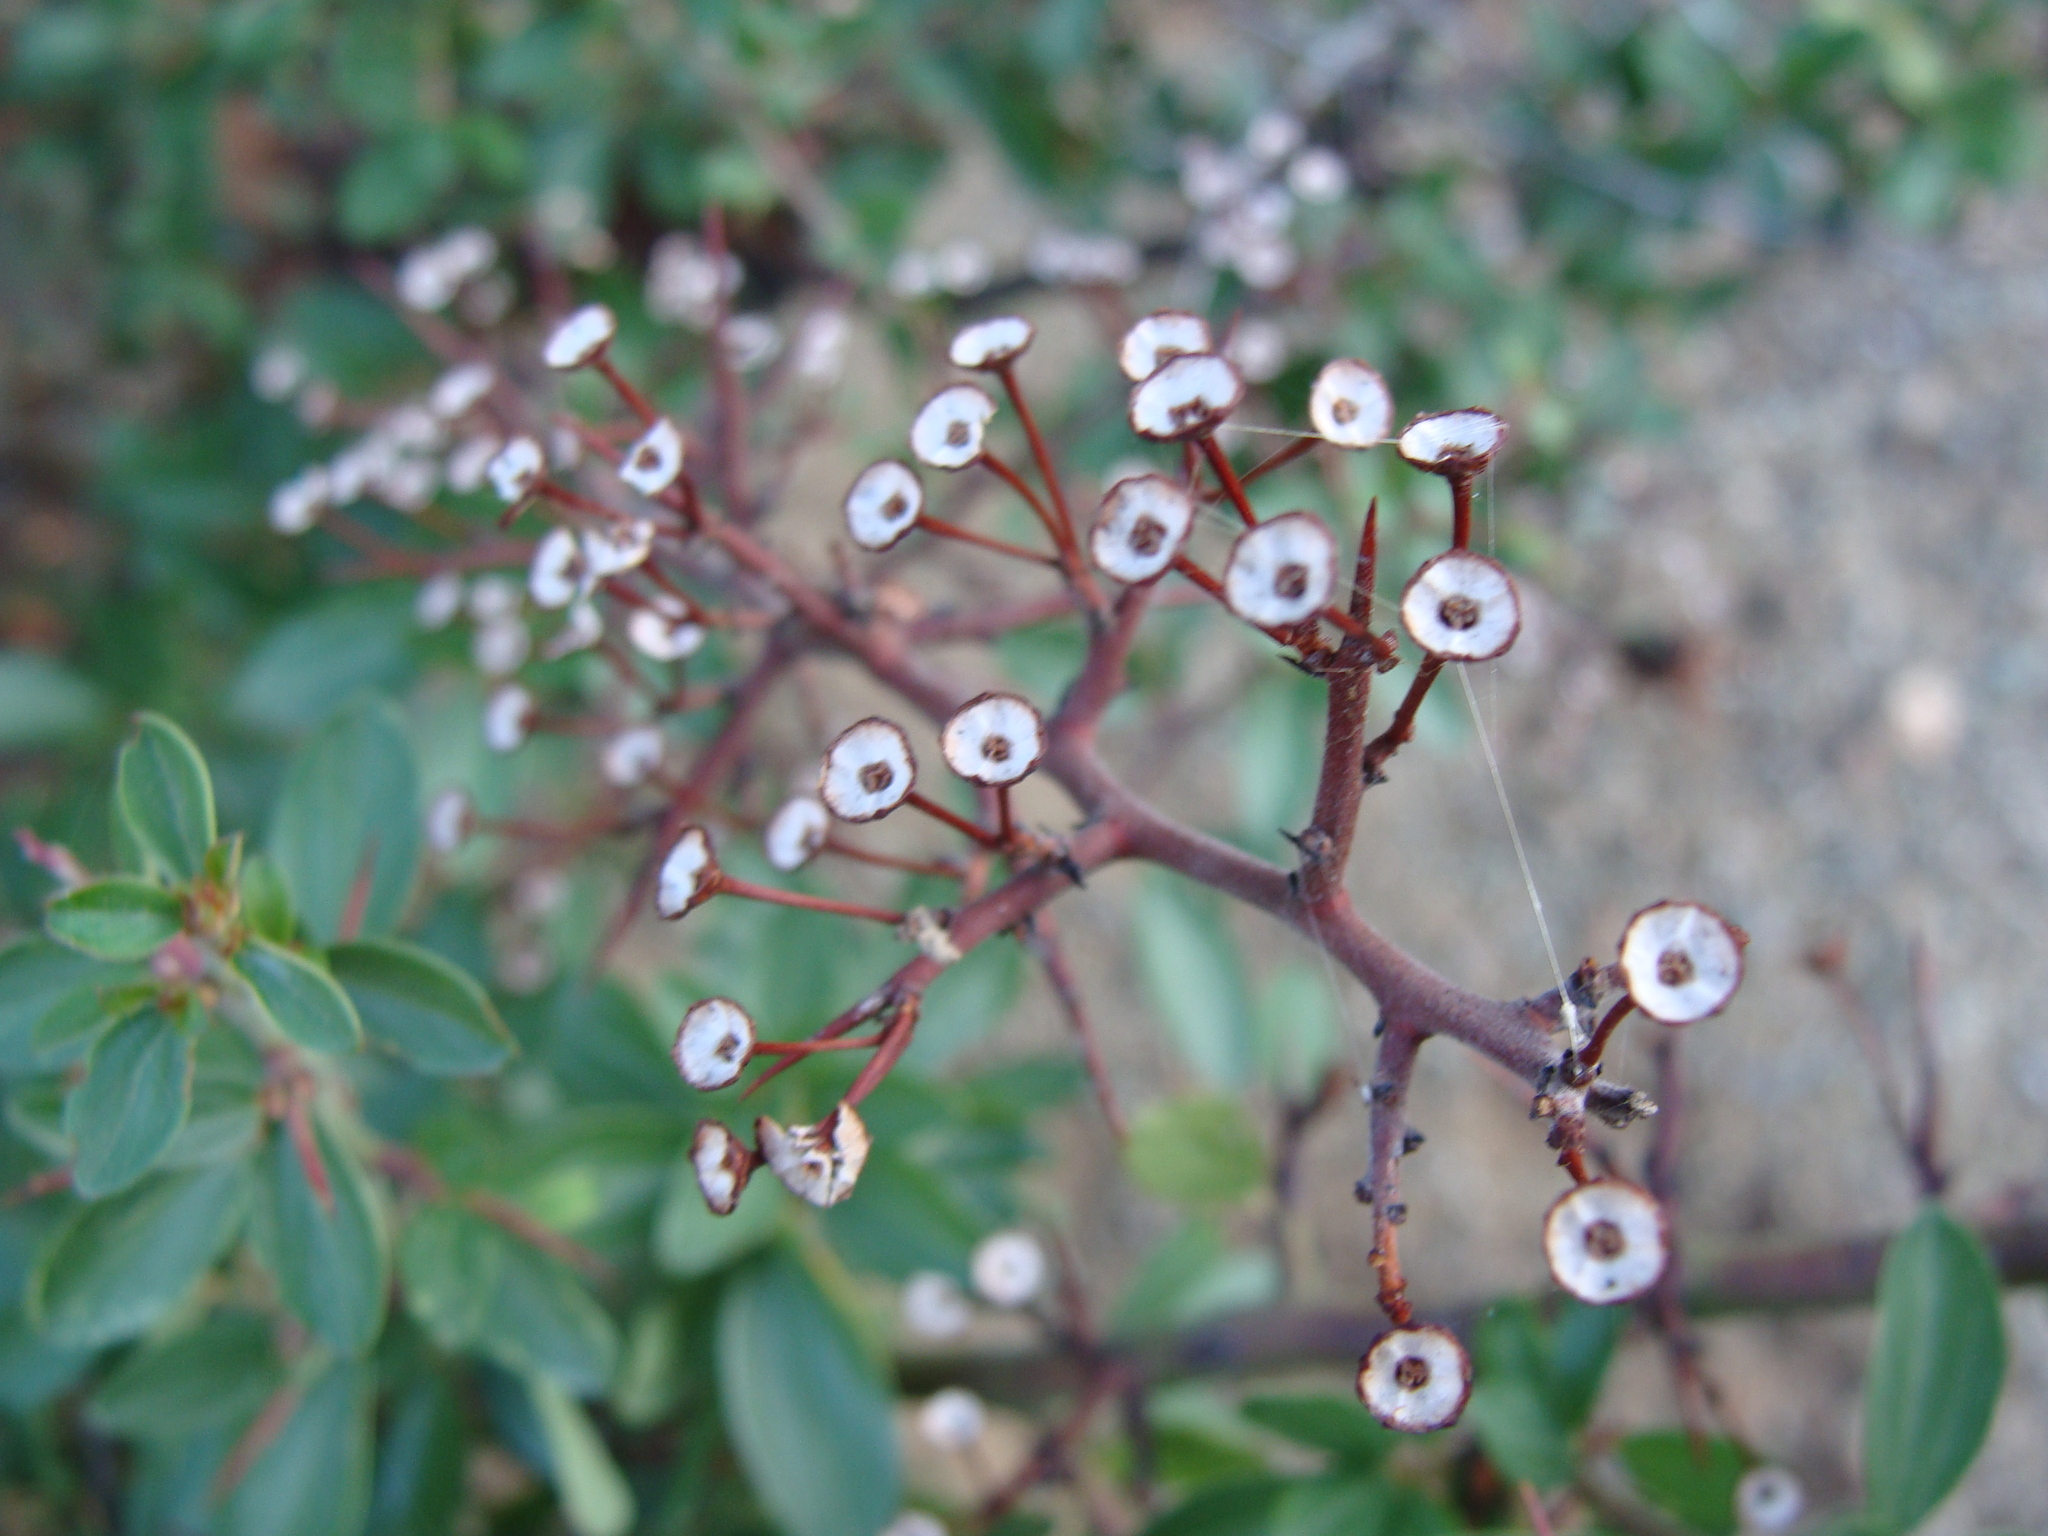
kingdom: Plantae
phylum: Tracheophyta
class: Magnoliopsida
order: Rosales
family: Rhamnaceae
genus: Ceanothus
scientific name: Ceanothus buxifolius
